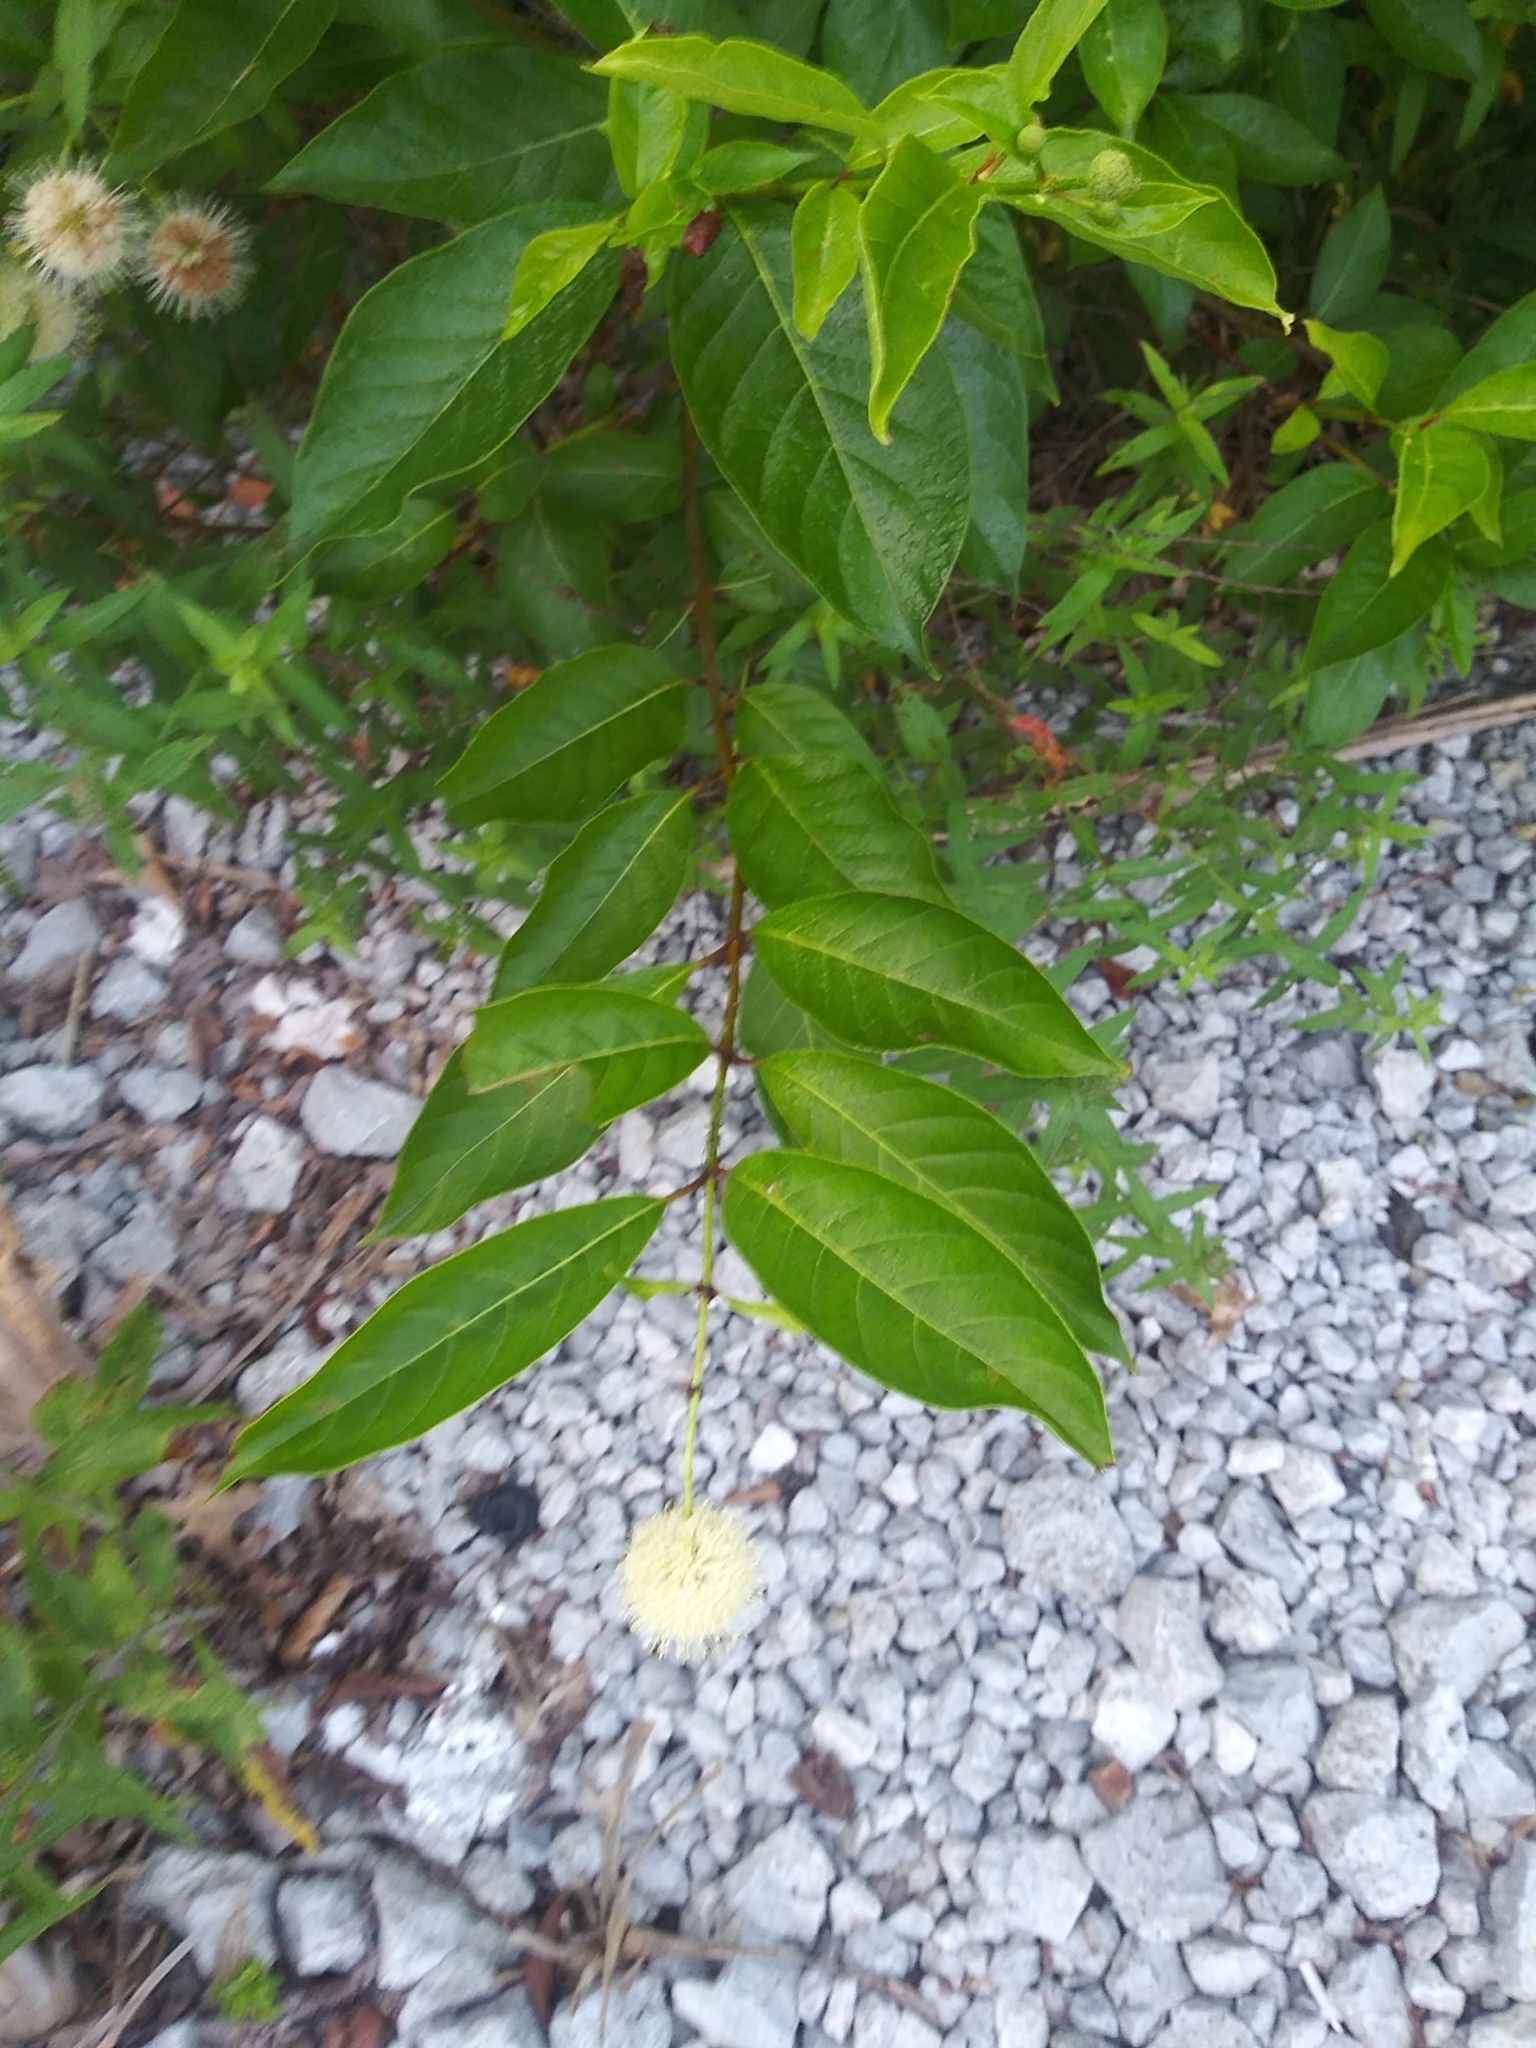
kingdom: Plantae
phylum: Tracheophyta
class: Magnoliopsida
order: Gentianales
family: Rubiaceae
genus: Cephalanthus
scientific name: Cephalanthus occidentalis
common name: Button-willow
